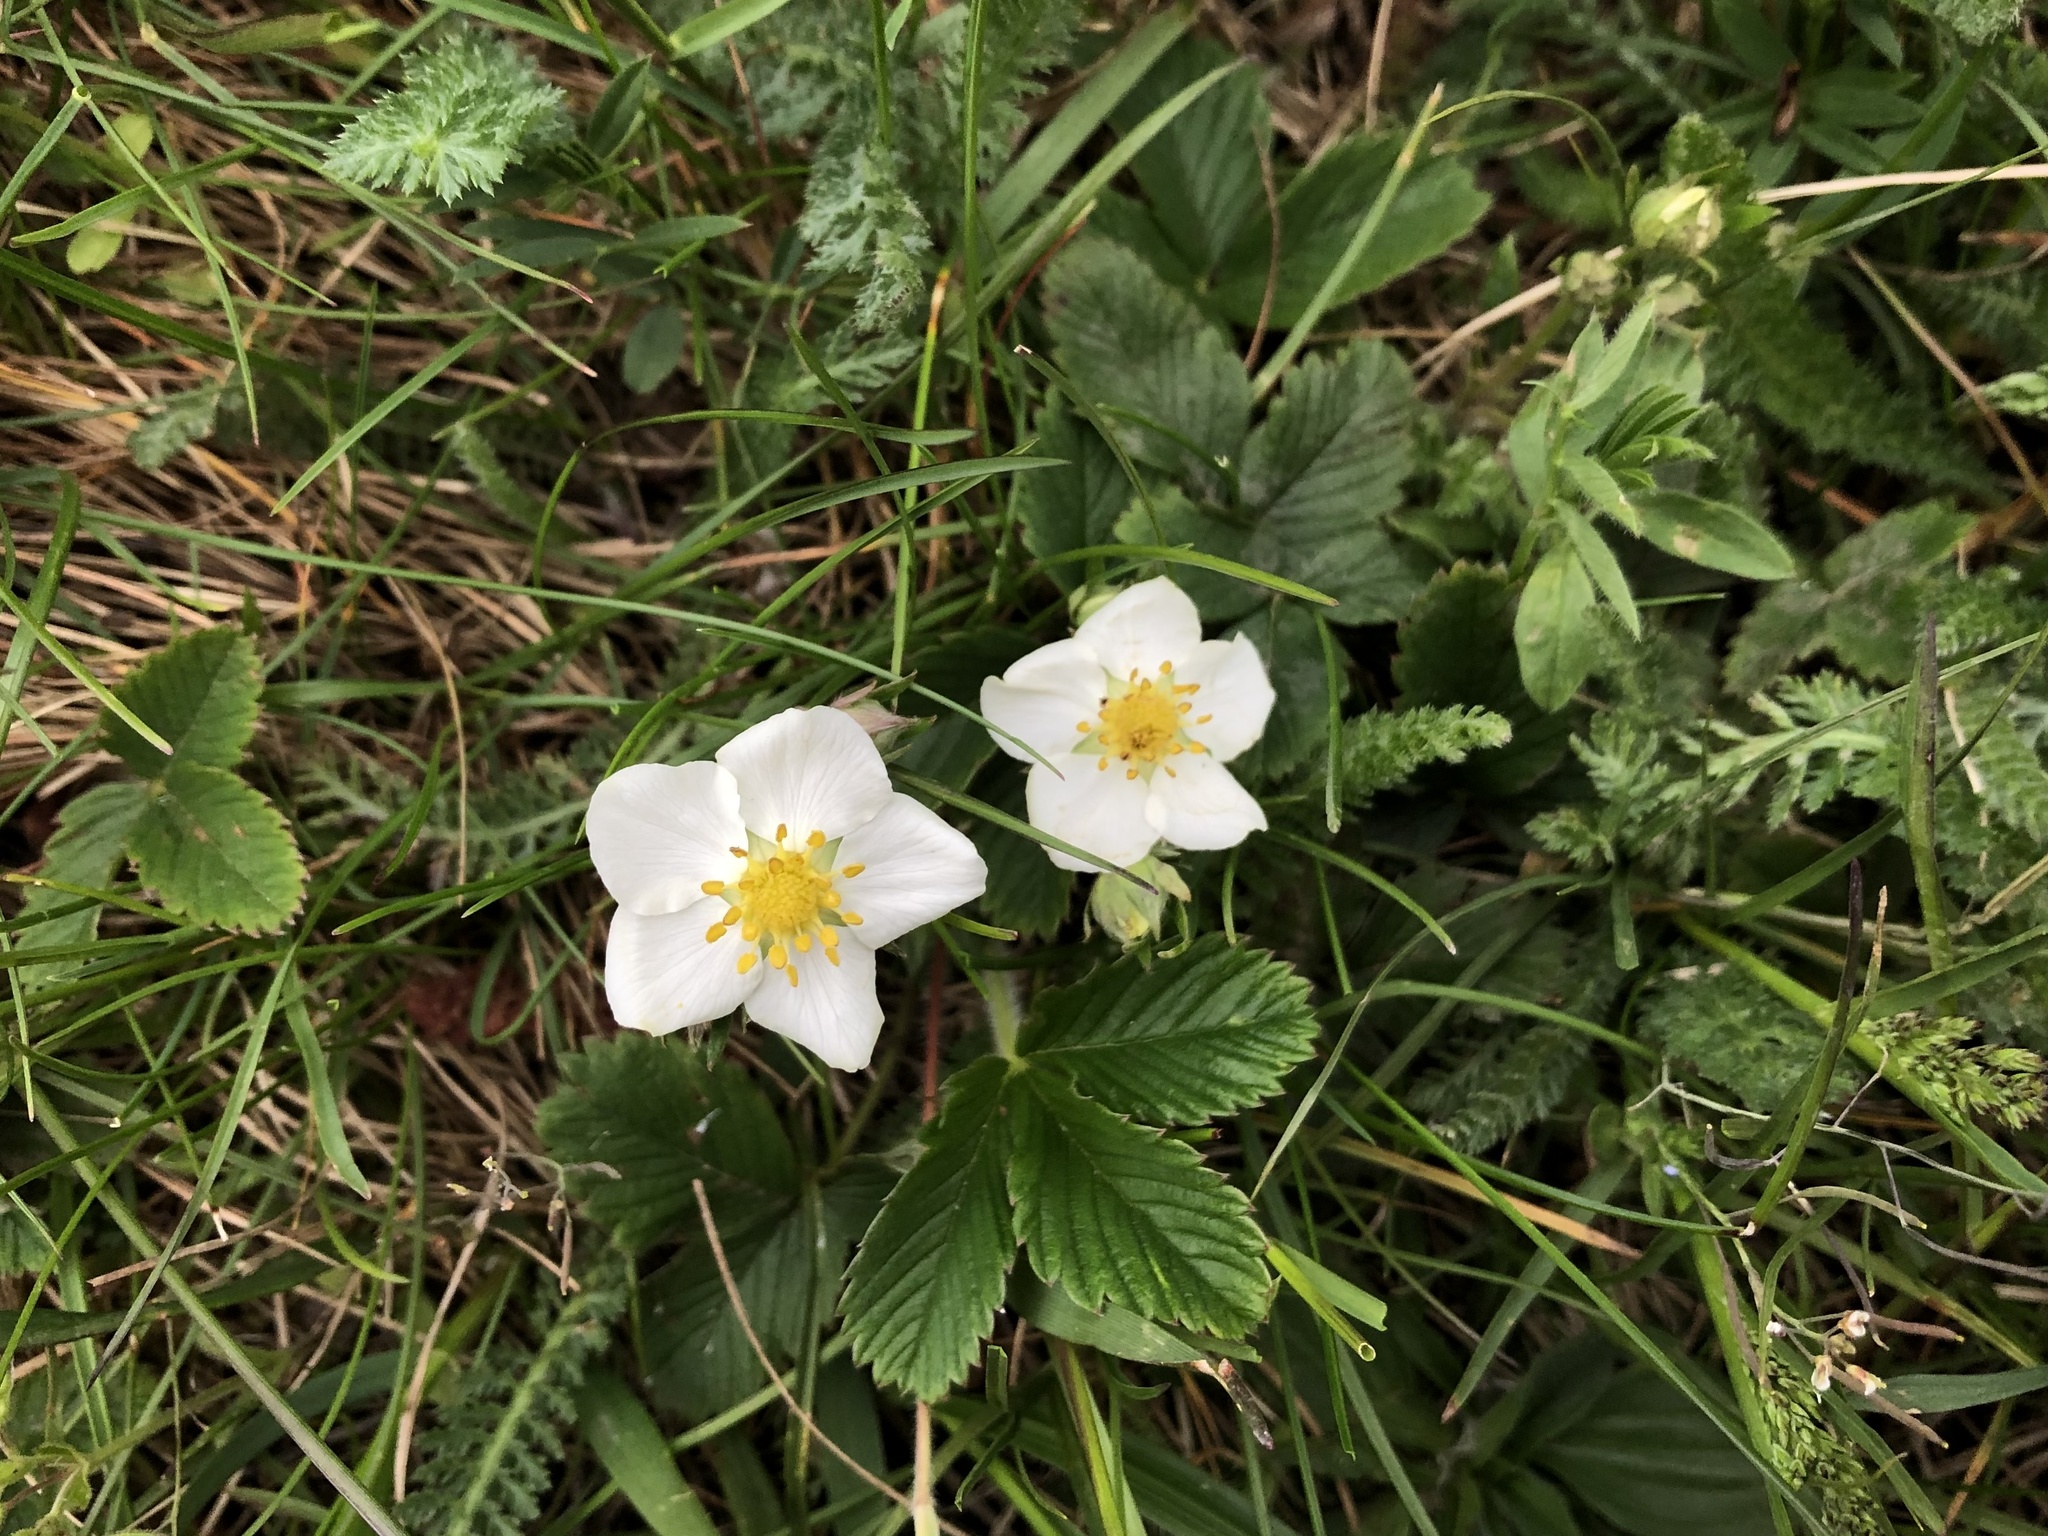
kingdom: Plantae
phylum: Tracheophyta
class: Magnoliopsida
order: Rosales
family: Rosaceae
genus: Fragaria
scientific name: Fragaria viridis
